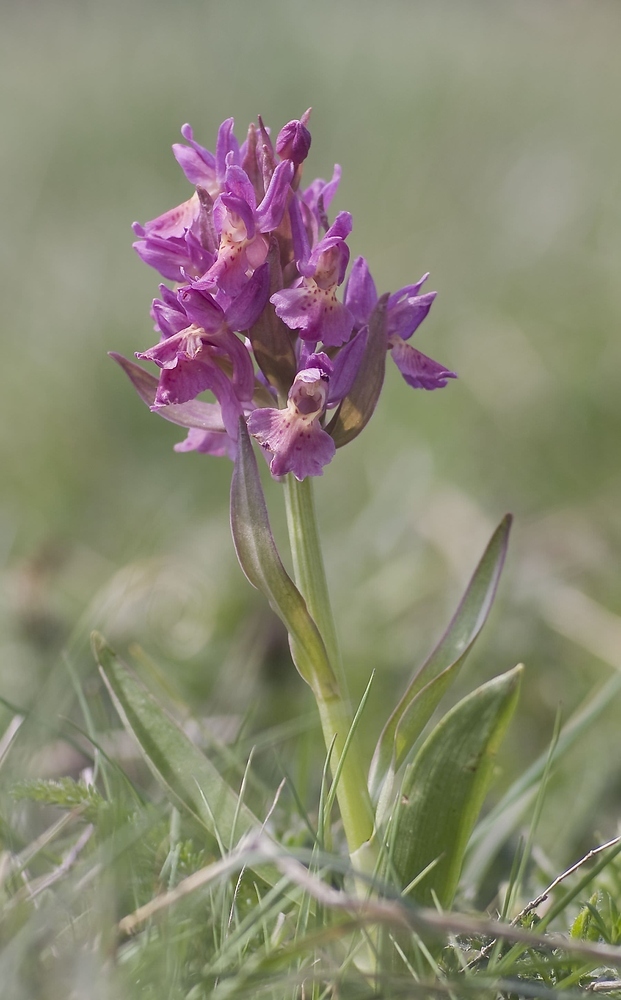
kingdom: Plantae
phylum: Tracheophyta
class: Liliopsida
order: Asparagales
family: Orchidaceae
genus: Dactylorhiza
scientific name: Dactylorhiza sambucina
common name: Elder-flowered orchid
